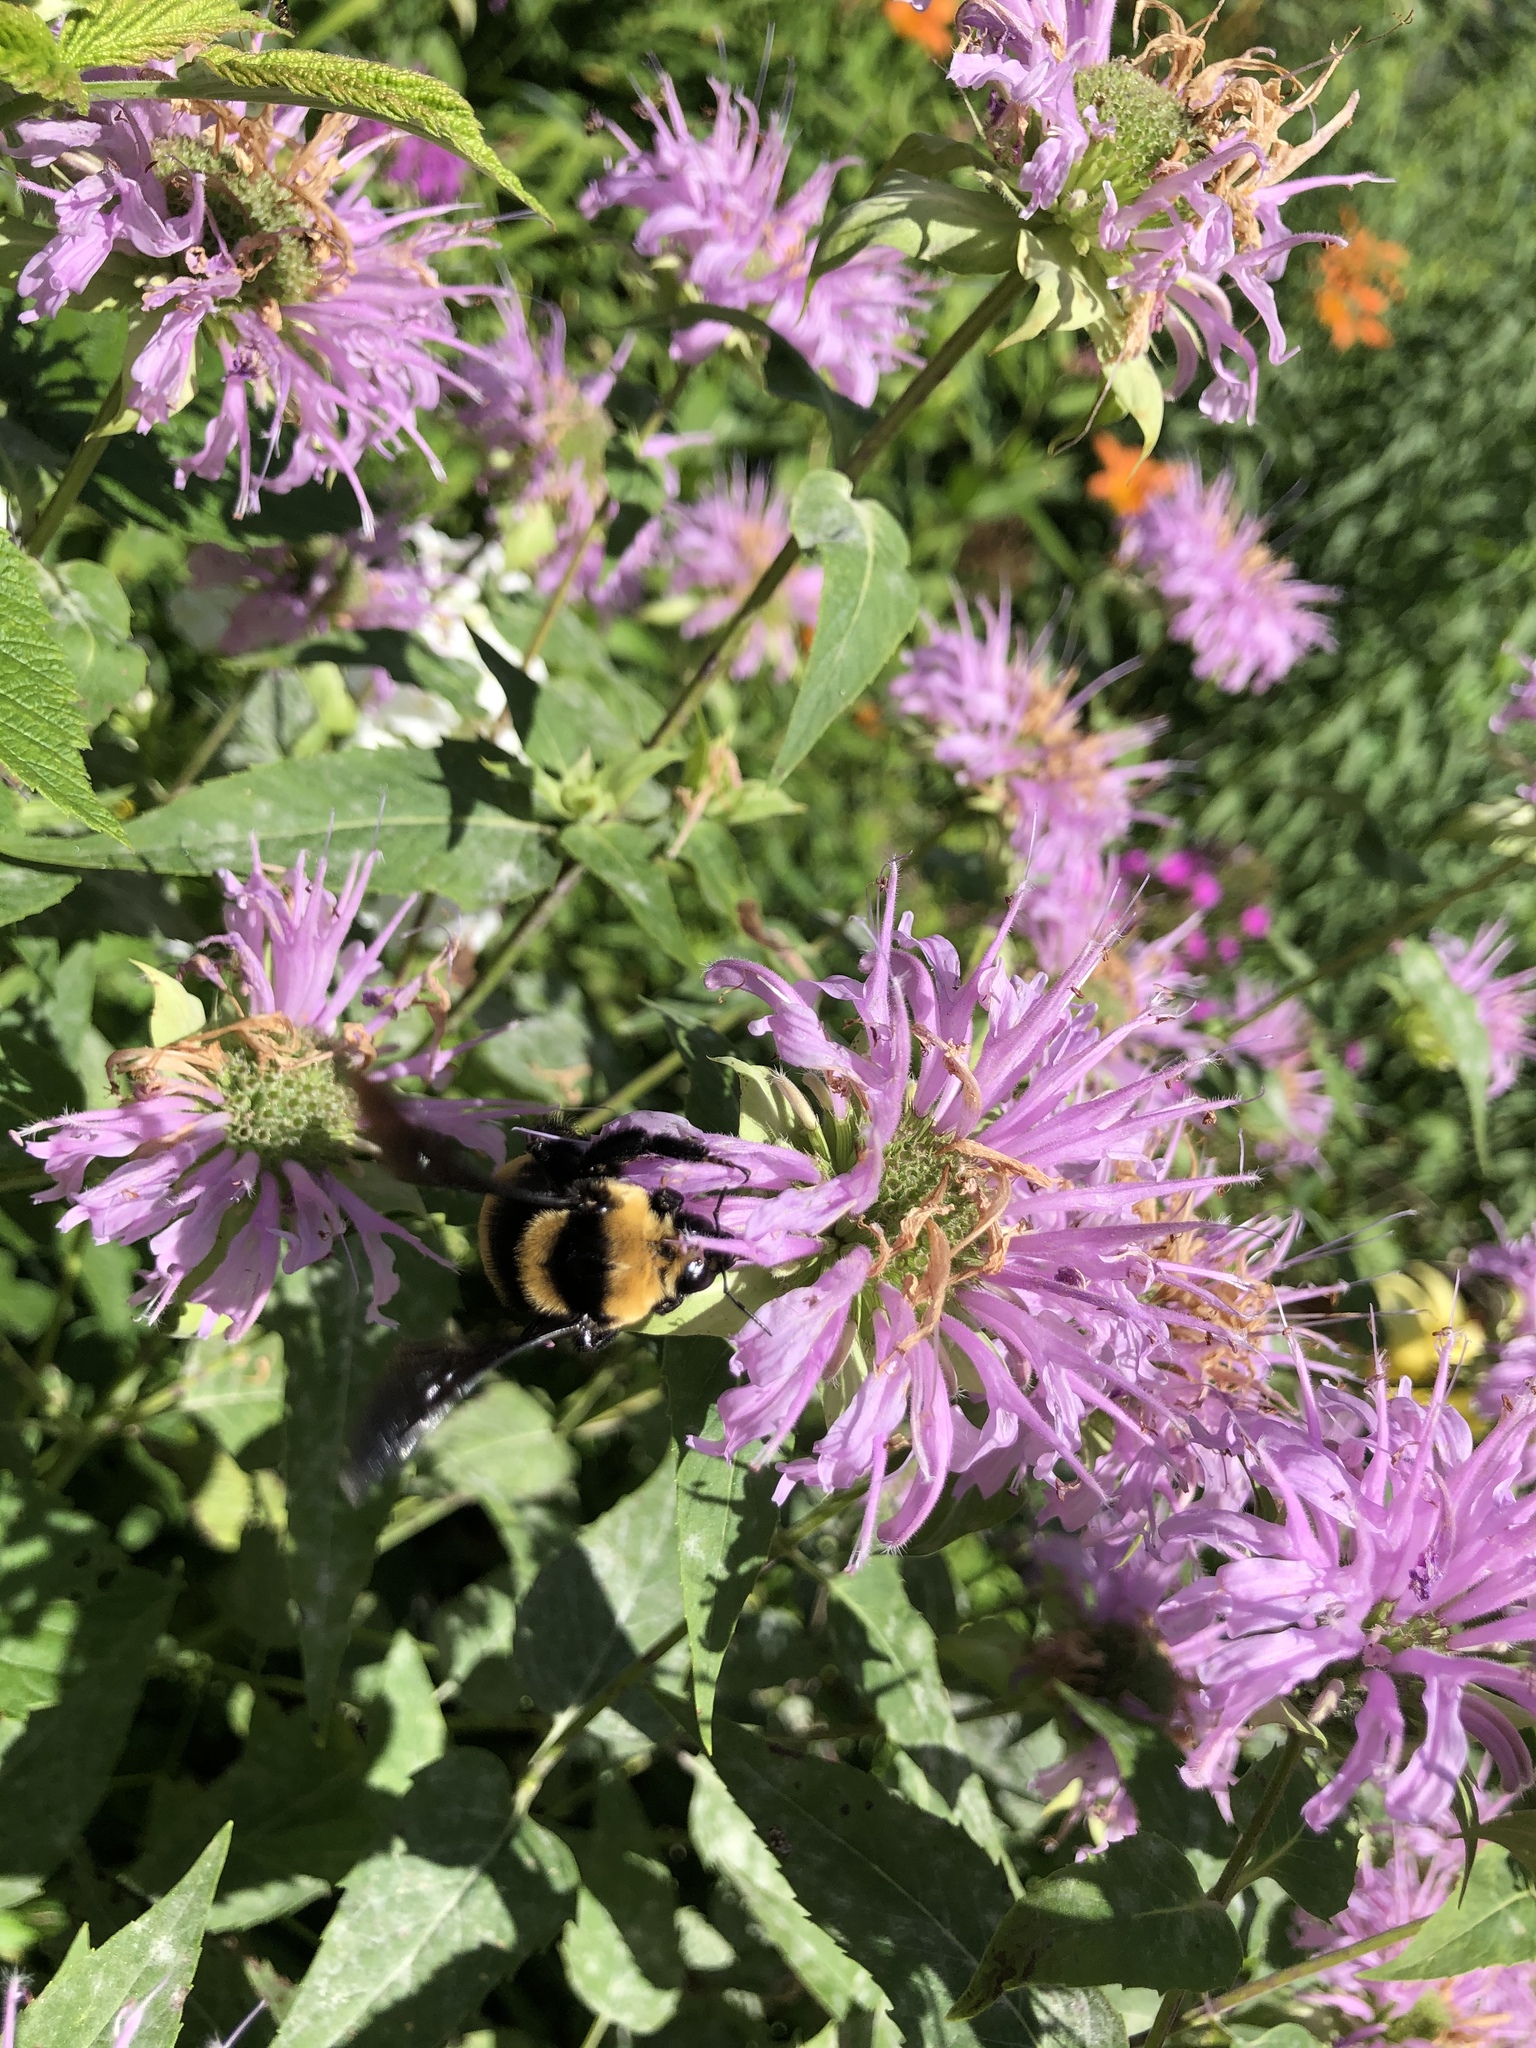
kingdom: Animalia
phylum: Arthropoda
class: Insecta
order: Hymenoptera
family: Apidae
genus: Bombus
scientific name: Bombus auricomus
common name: Black and gold bumble bee
